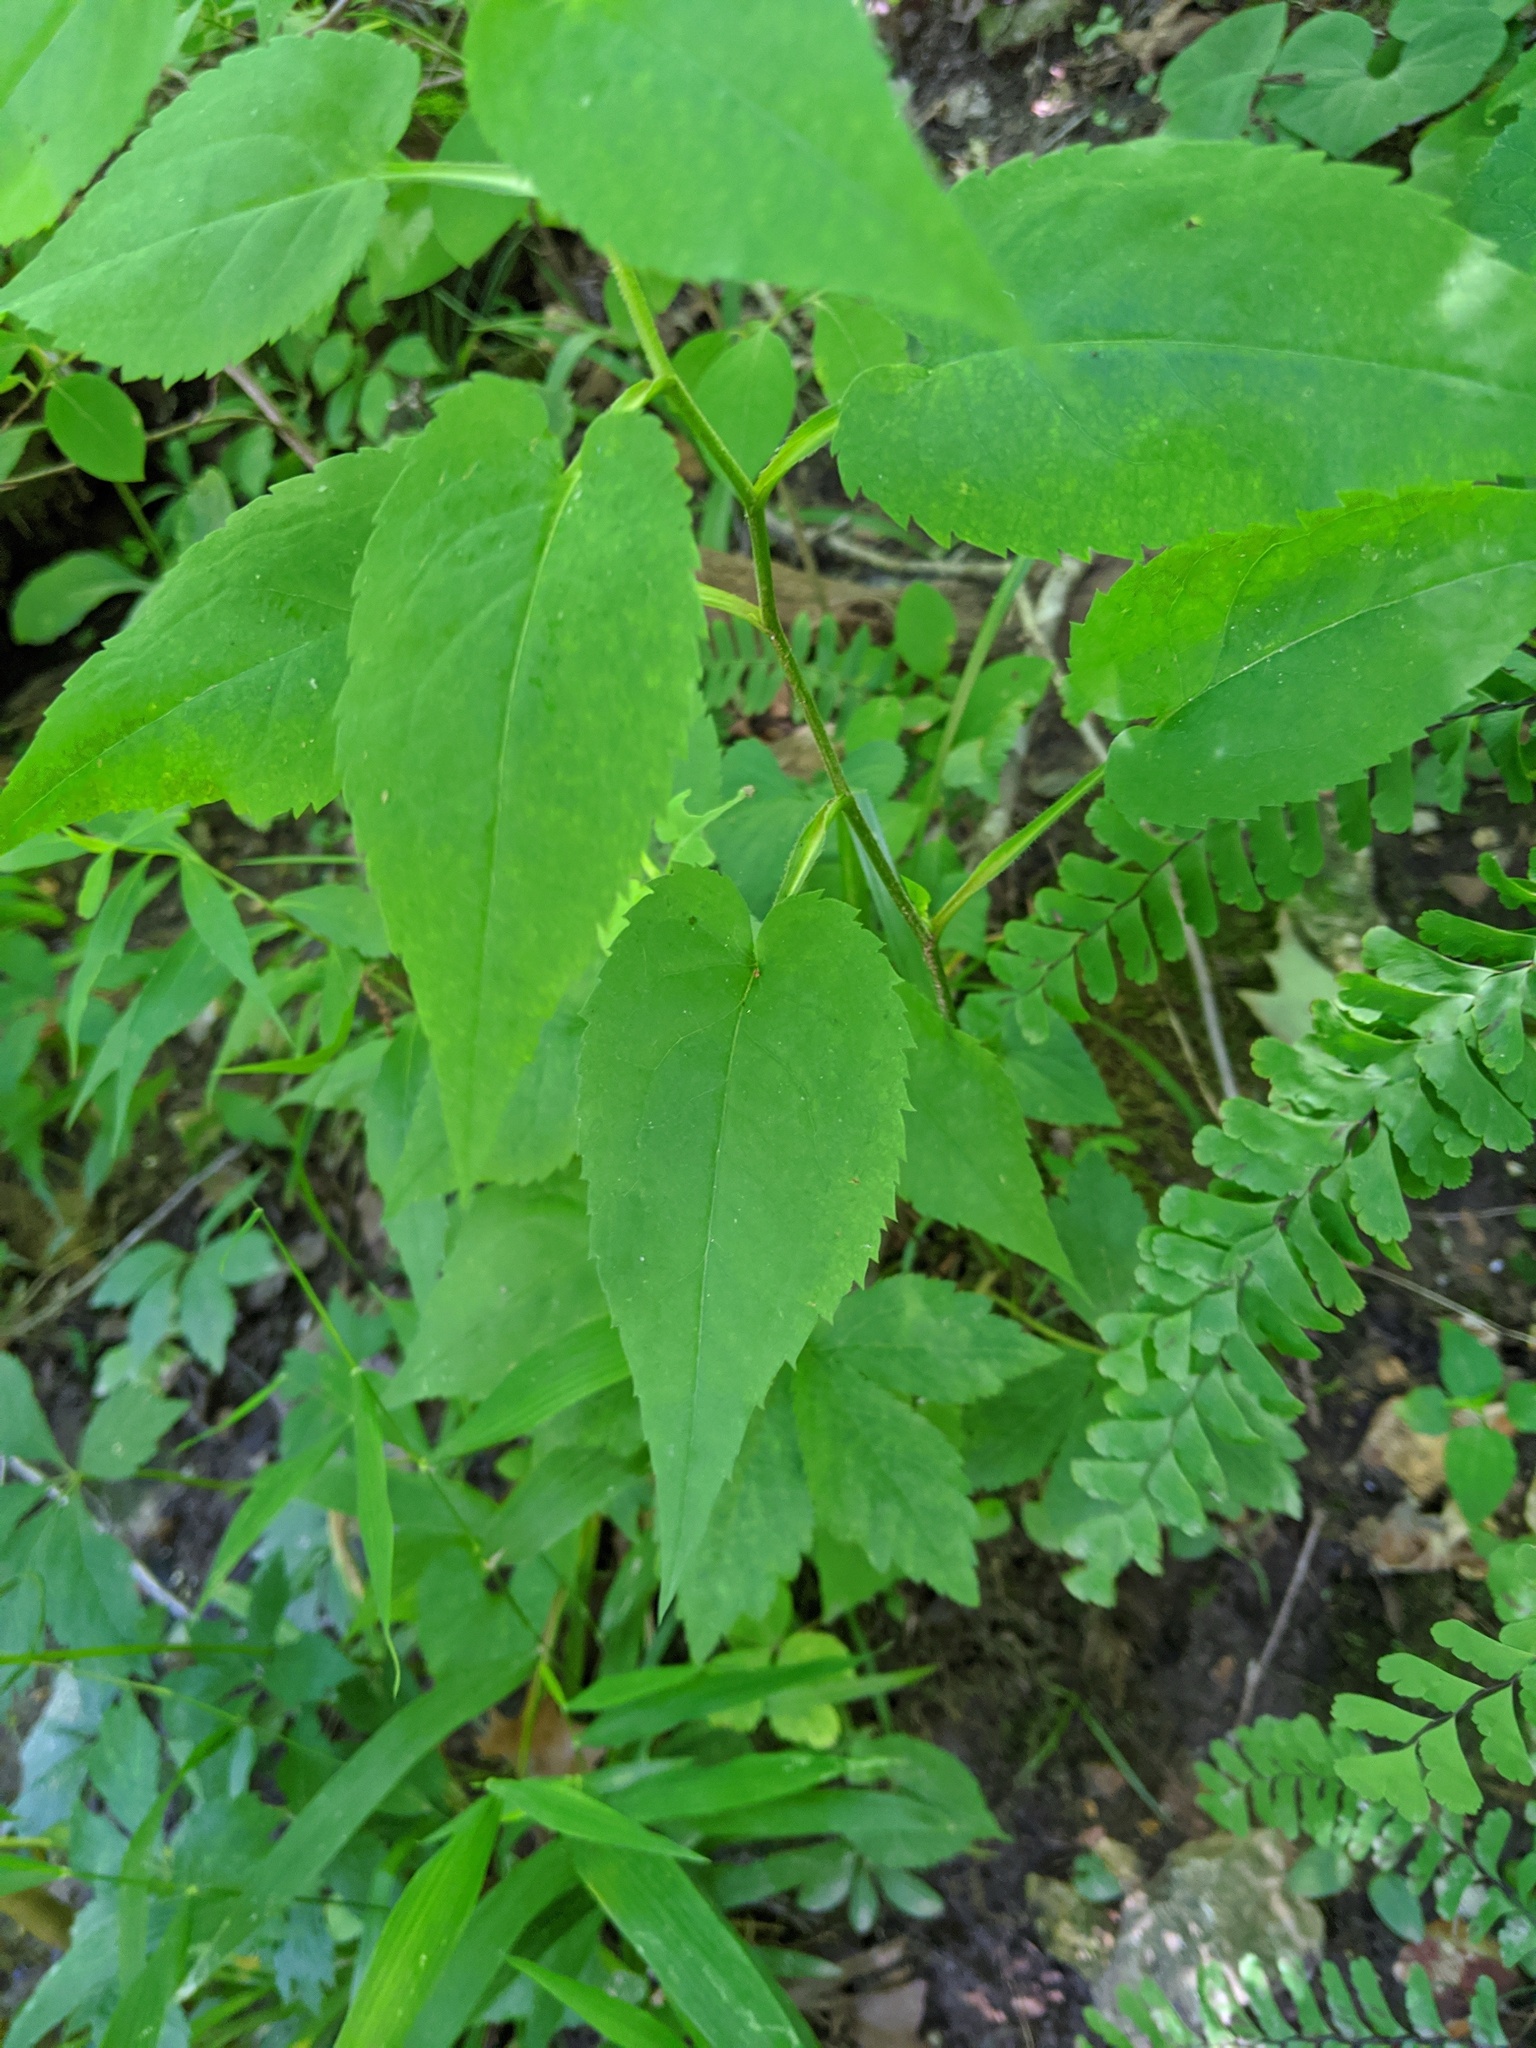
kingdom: Plantae
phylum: Tracheophyta
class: Magnoliopsida
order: Asterales
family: Asteraceae
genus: Eurybia
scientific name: Eurybia furcata
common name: Forked aster
